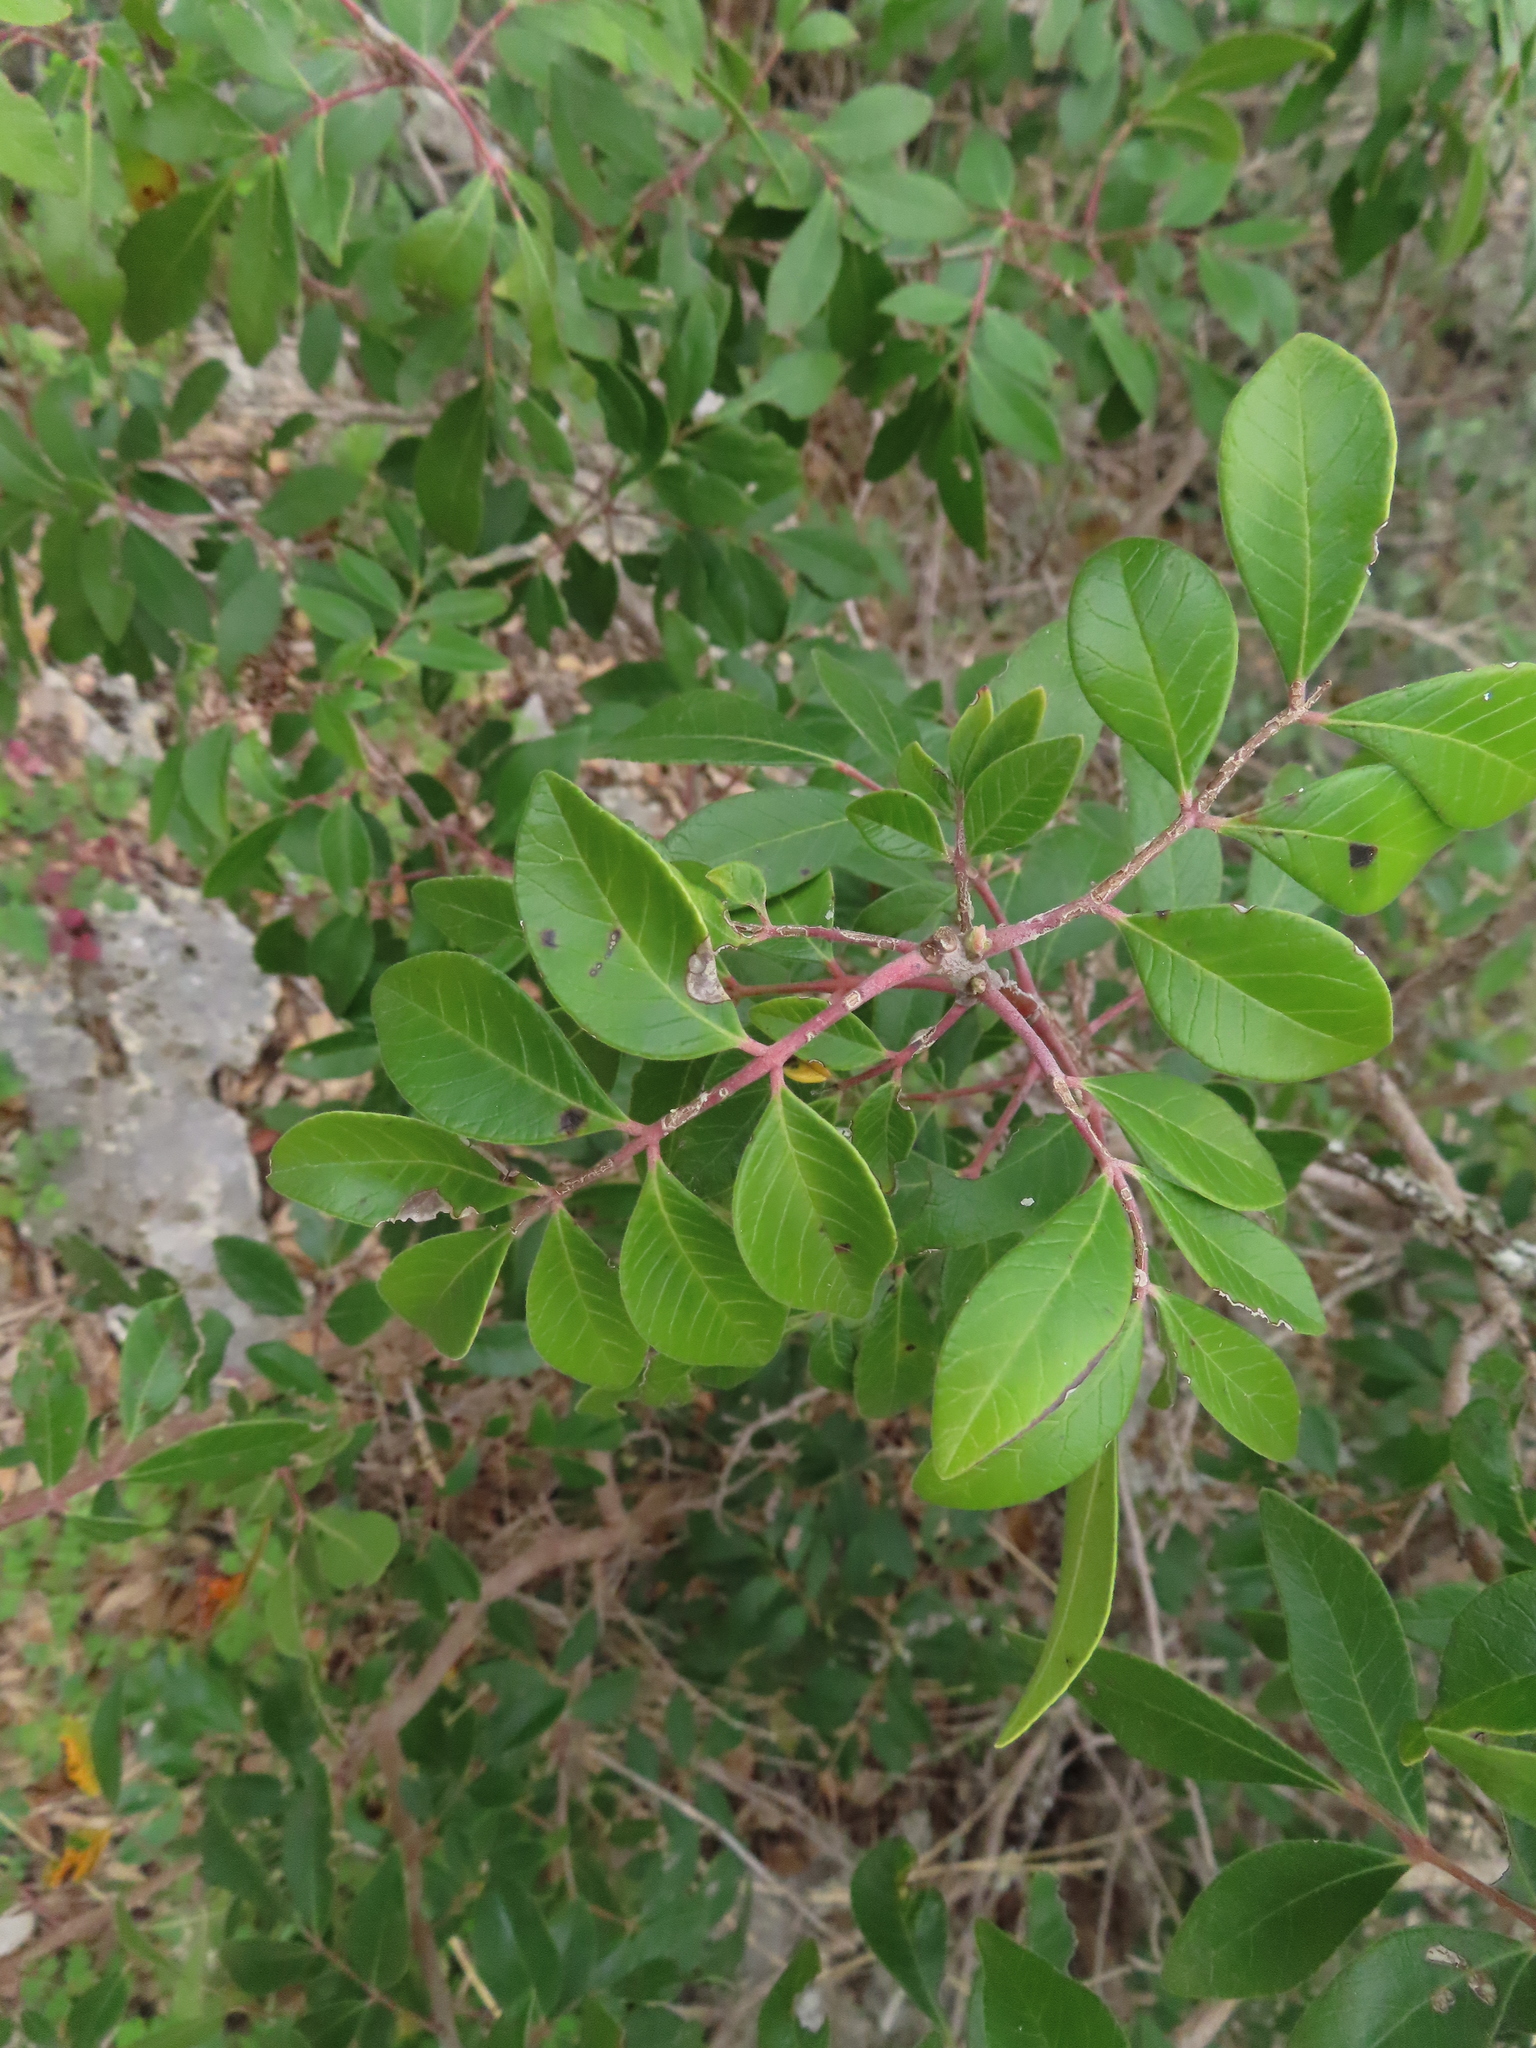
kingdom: Plantae
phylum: Tracheophyta
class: Magnoliopsida
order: Sapindales
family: Anacardiaceae
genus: Rhus
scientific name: Rhus virens
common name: Evergreen sumac
